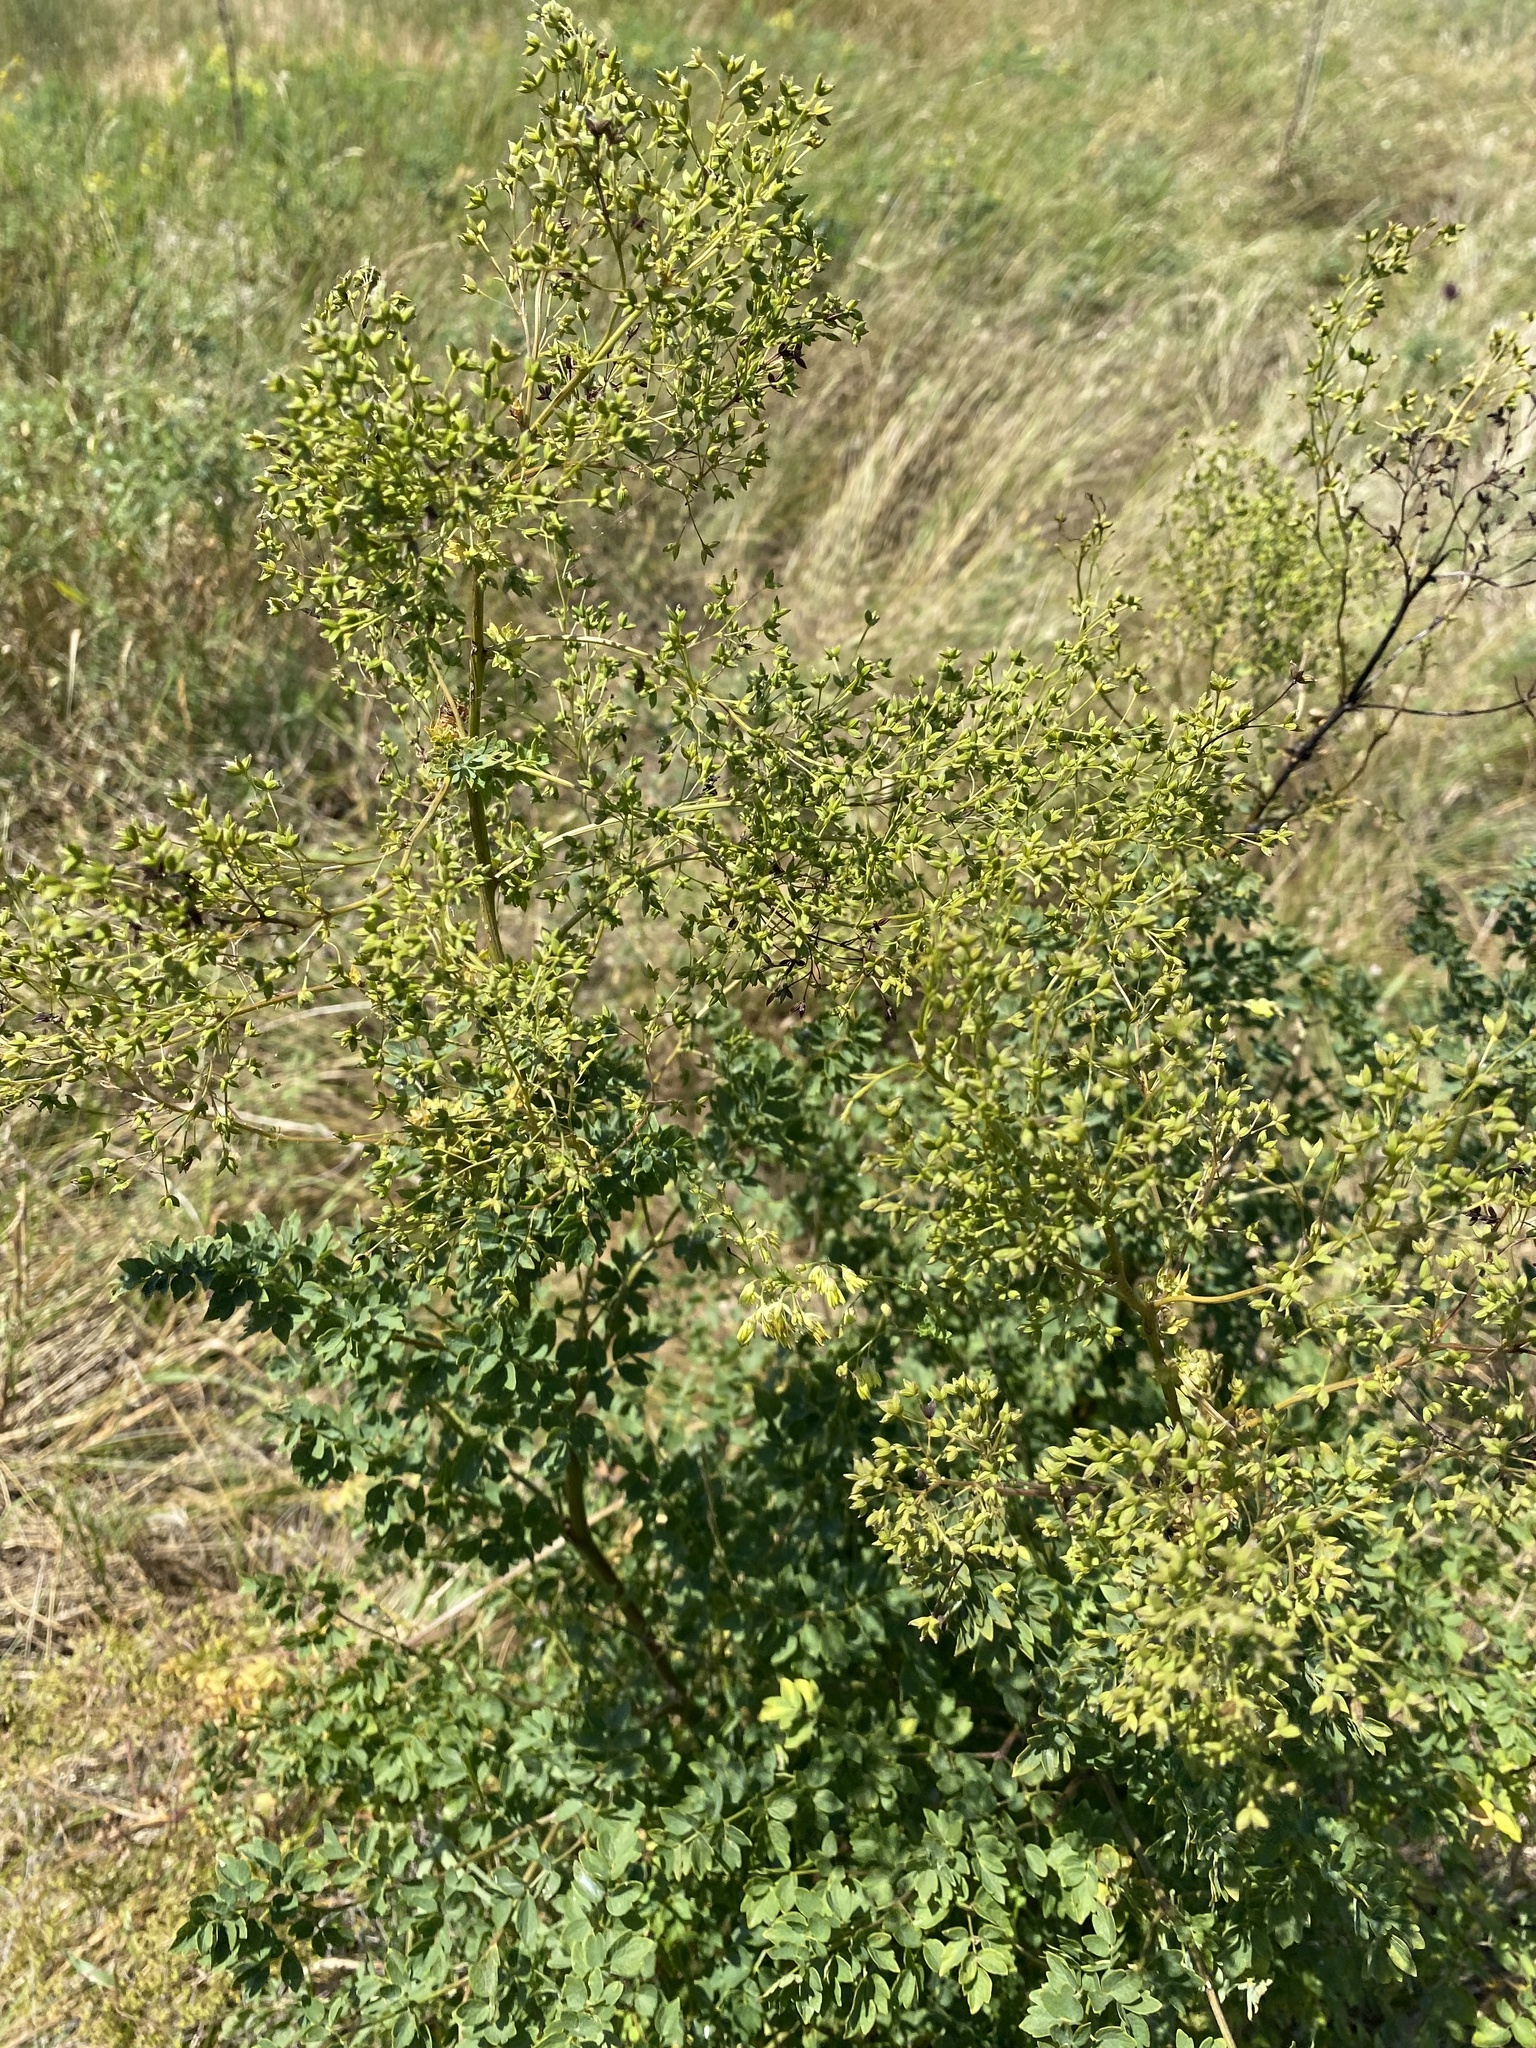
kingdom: Plantae
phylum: Tracheophyta
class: Magnoliopsida
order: Ranunculales
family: Ranunculaceae
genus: Thalictrum
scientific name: Thalictrum minus
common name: Lesser meadow-rue
